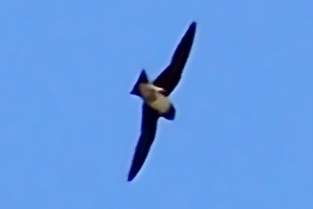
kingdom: Animalia
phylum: Chordata
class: Aves
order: Passeriformes
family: Hirundinidae
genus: Stelgidopteryx
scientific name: Stelgidopteryx serripennis
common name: Northern rough-winged swallow
